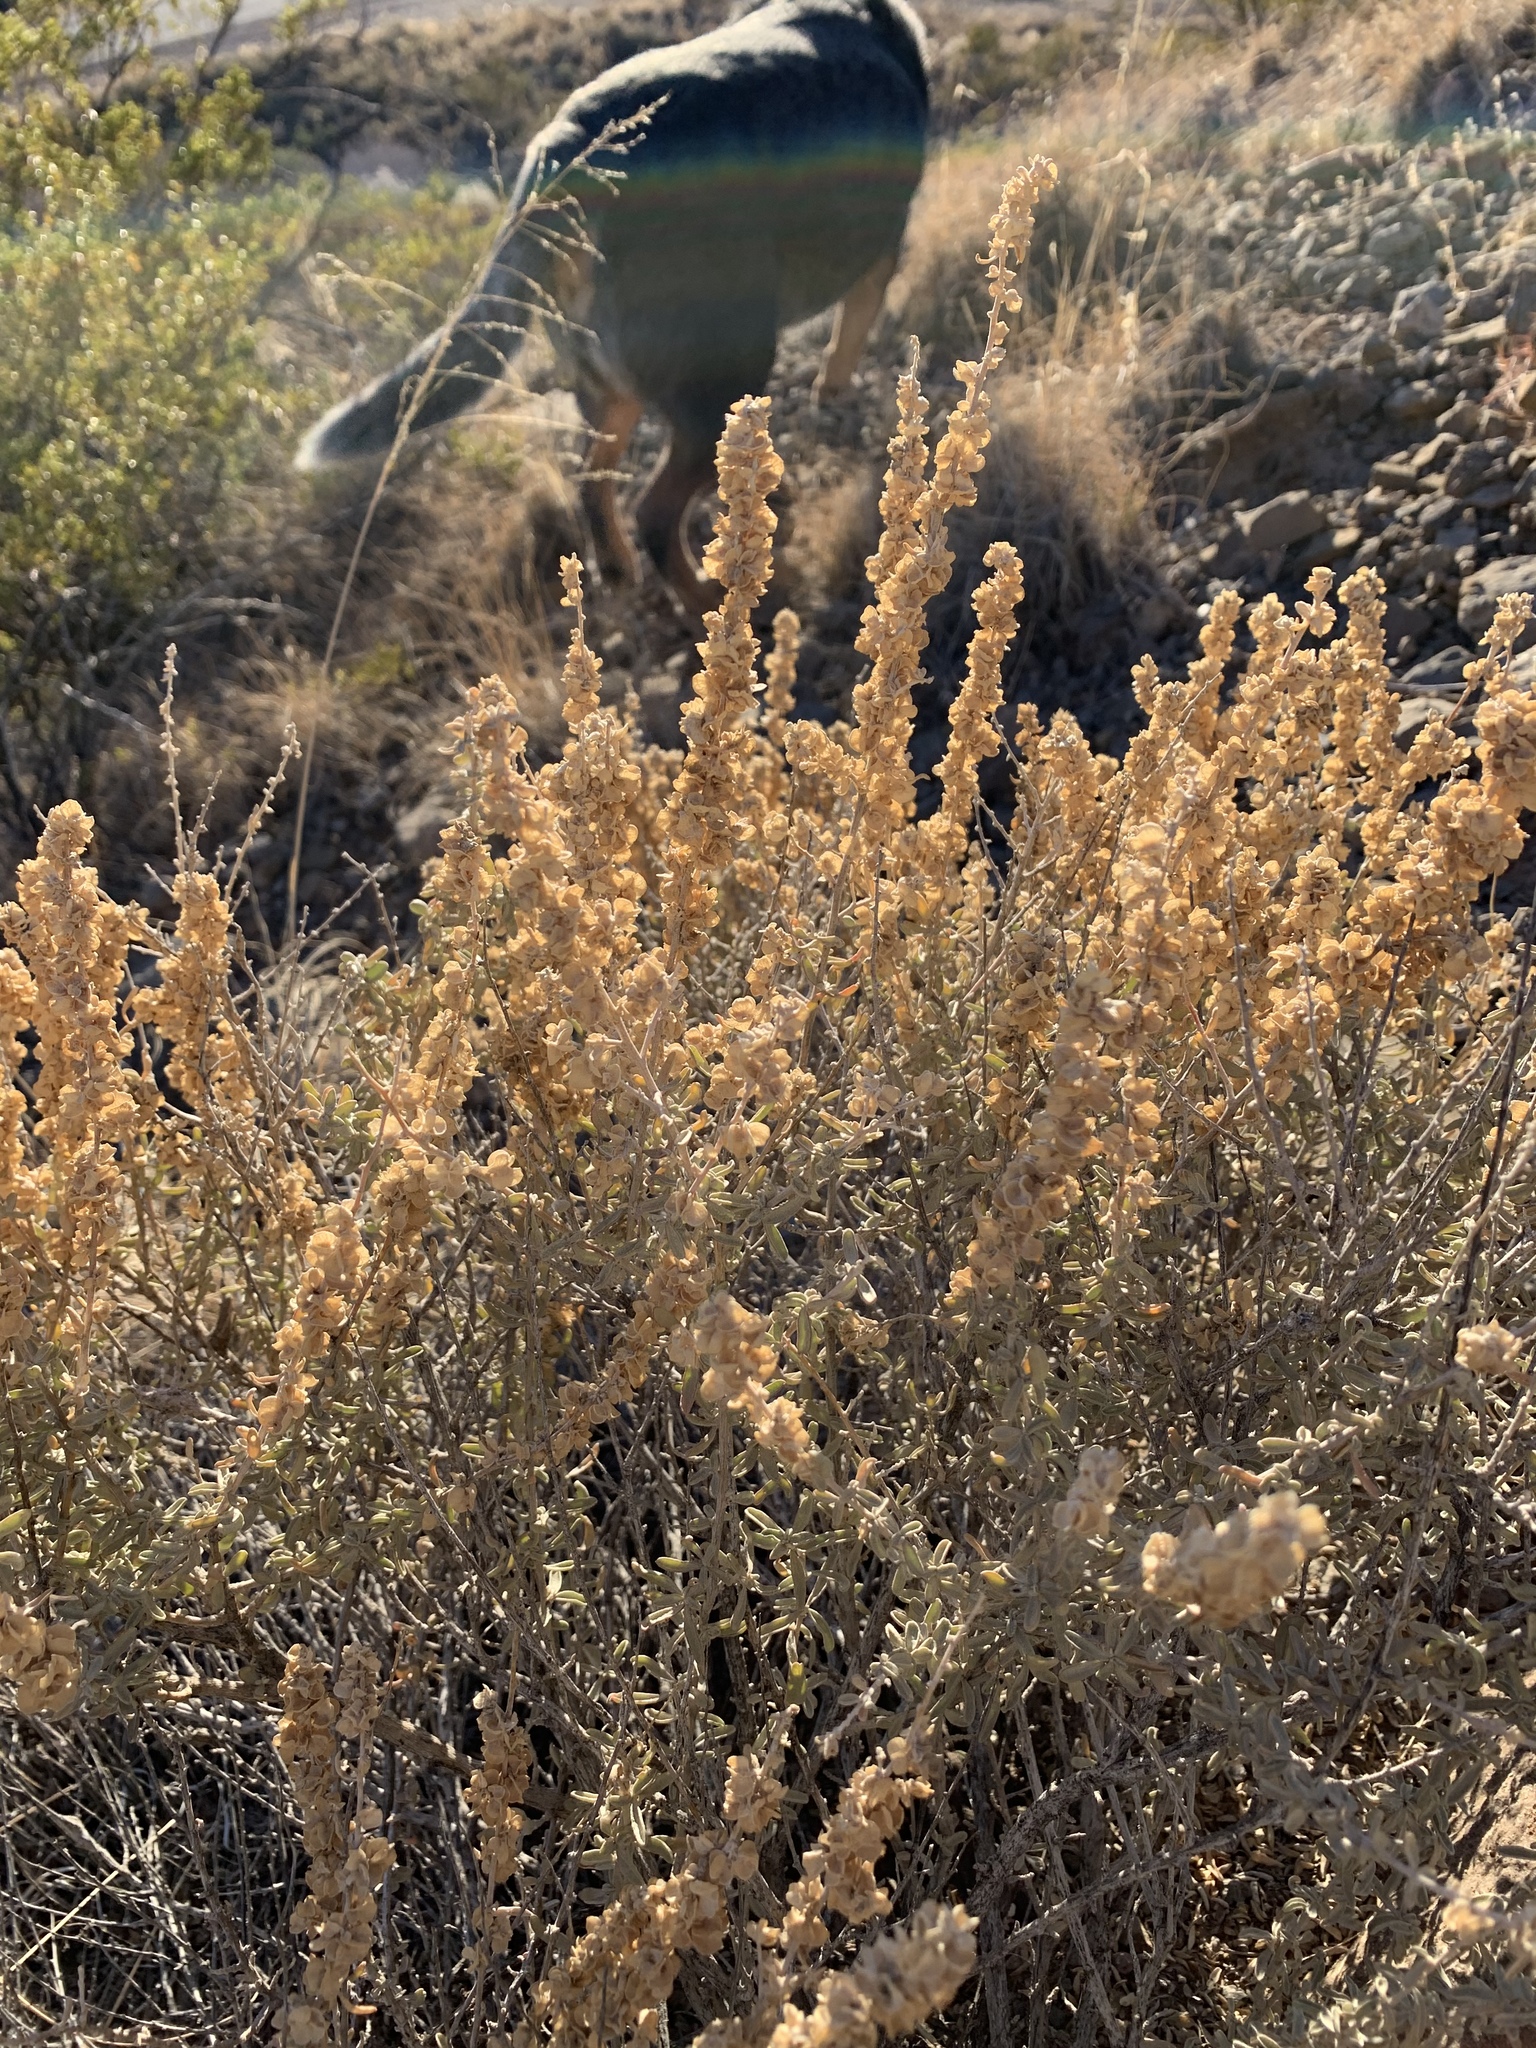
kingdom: Plantae
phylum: Tracheophyta
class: Magnoliopsida
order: Caryophyllales
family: Amaranthaceae
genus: Atriplex
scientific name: Atriplex canescens
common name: Four-wing saltbush
